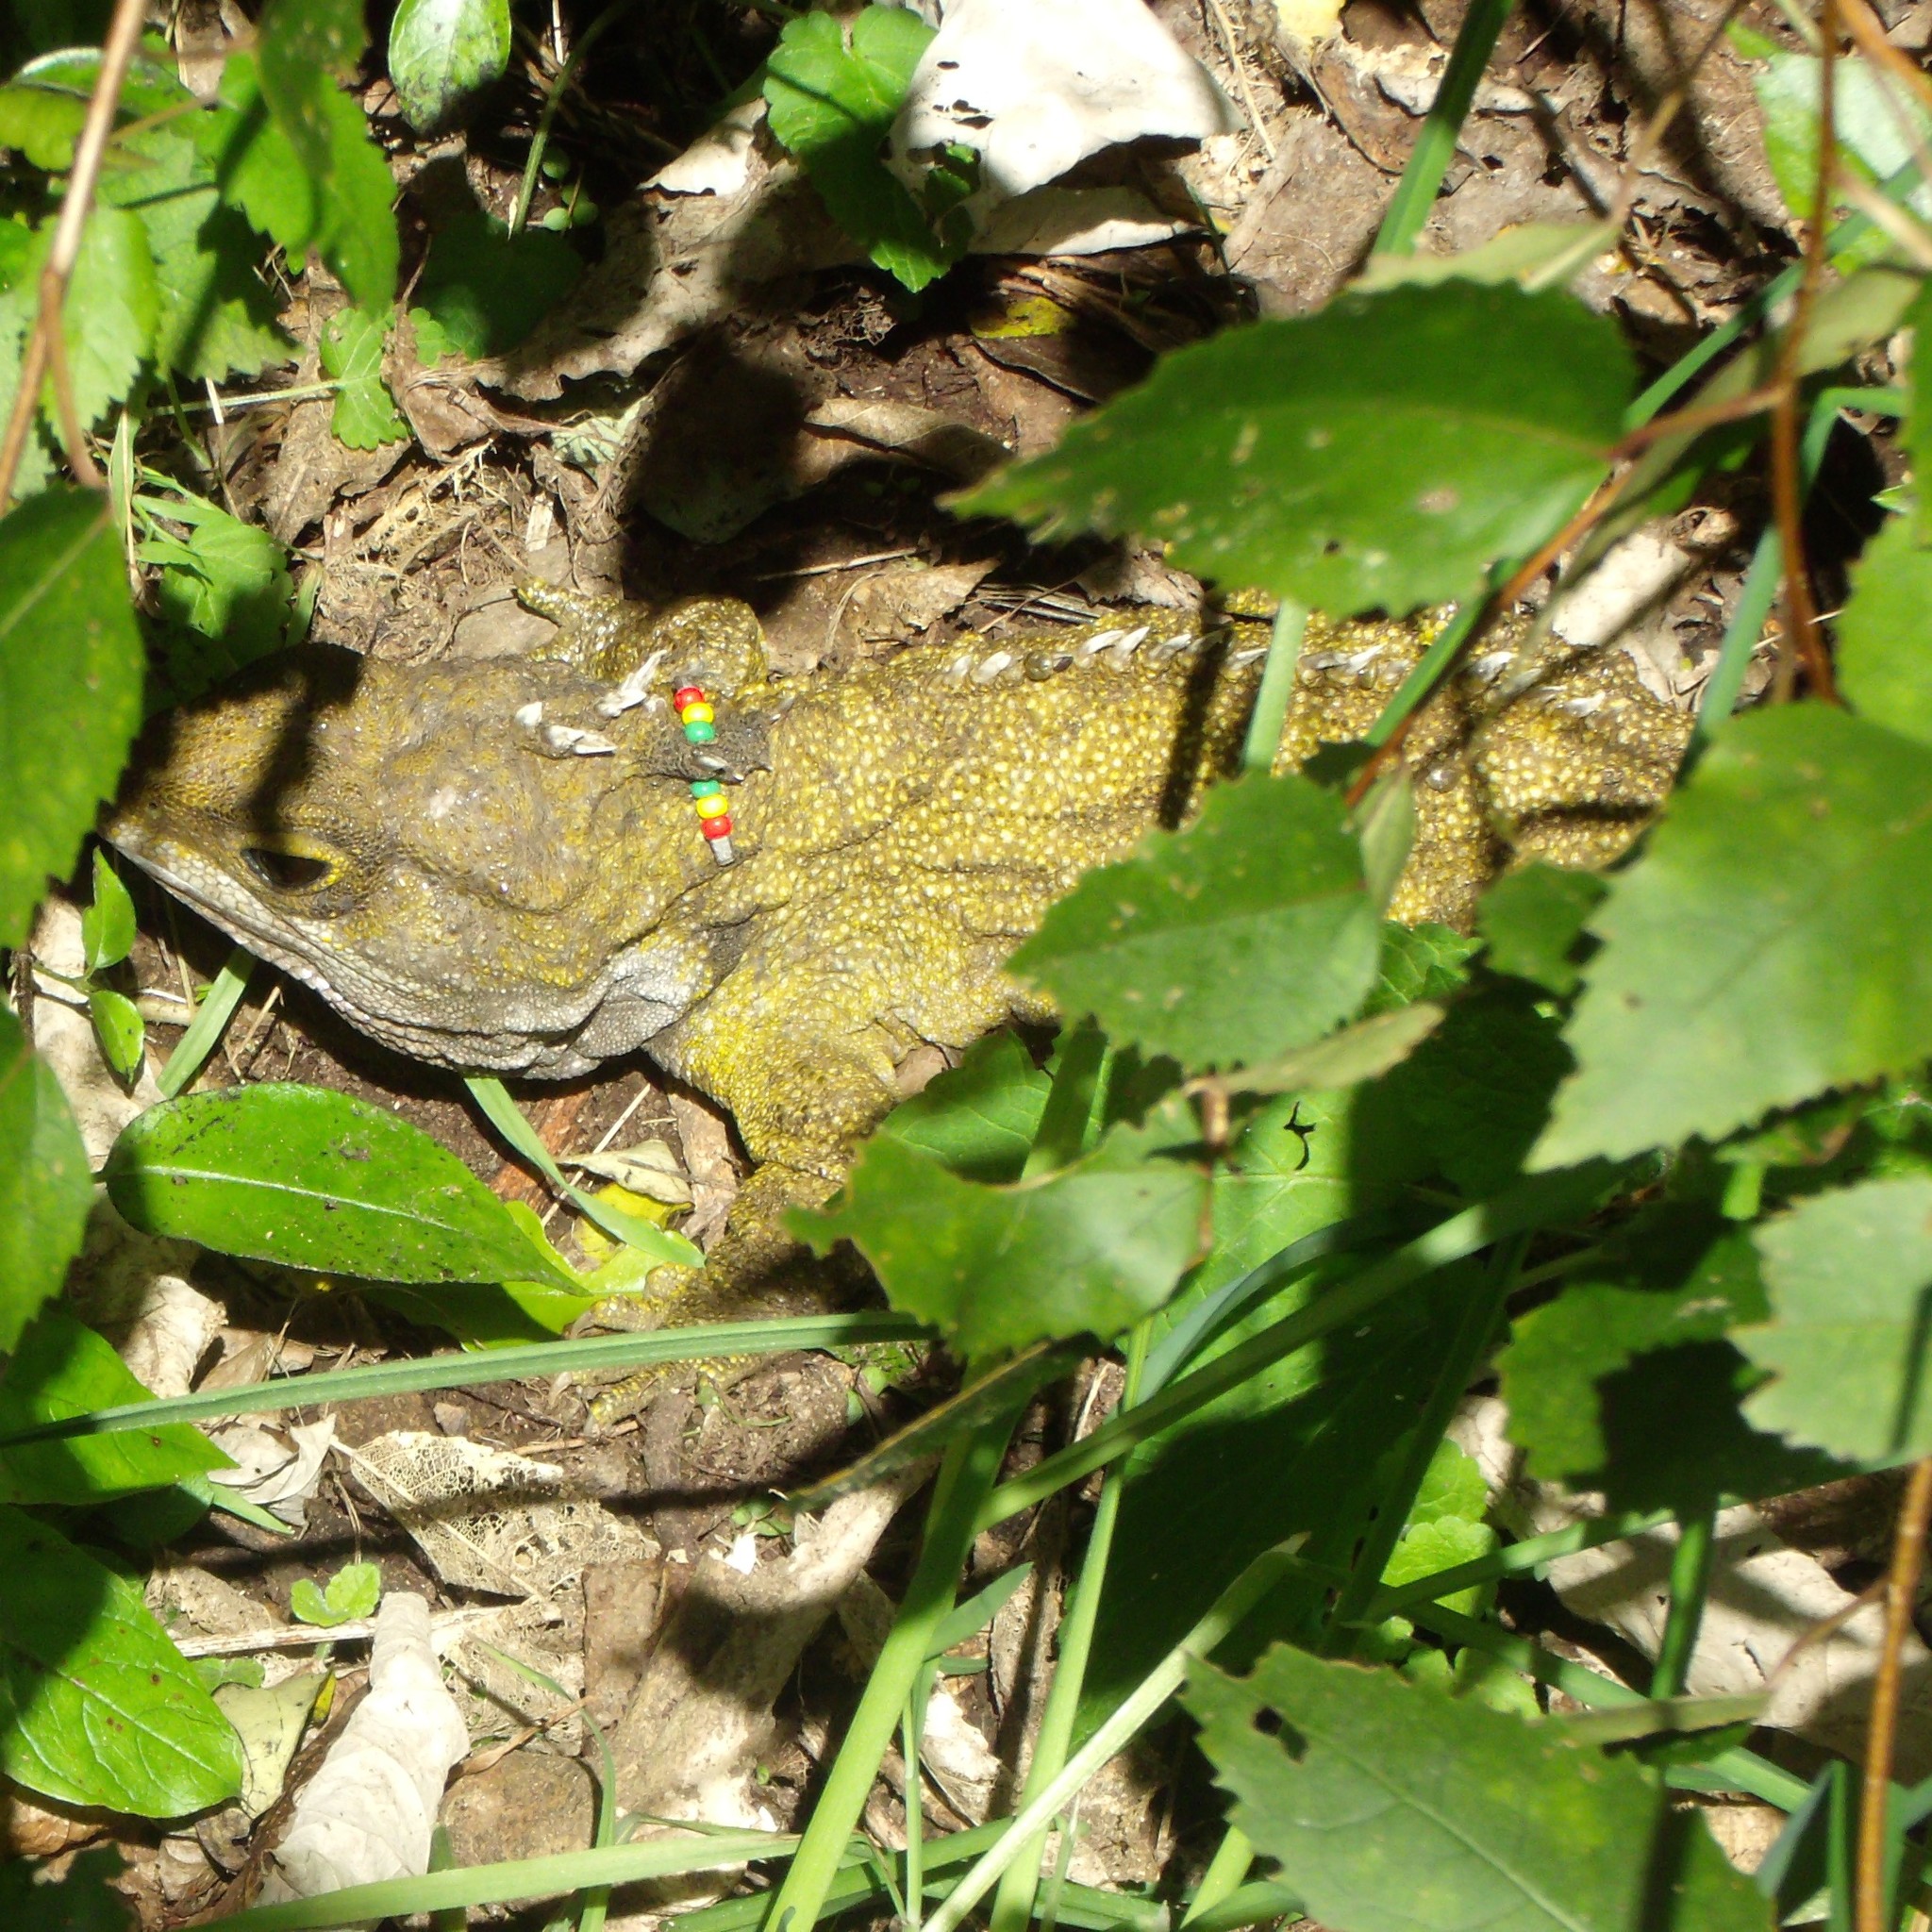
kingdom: Animalia
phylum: Chordata
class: Sphenodontia
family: Sphenodontidae
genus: Sphenodon
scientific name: Sphenodon punctatus
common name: Tuatara
